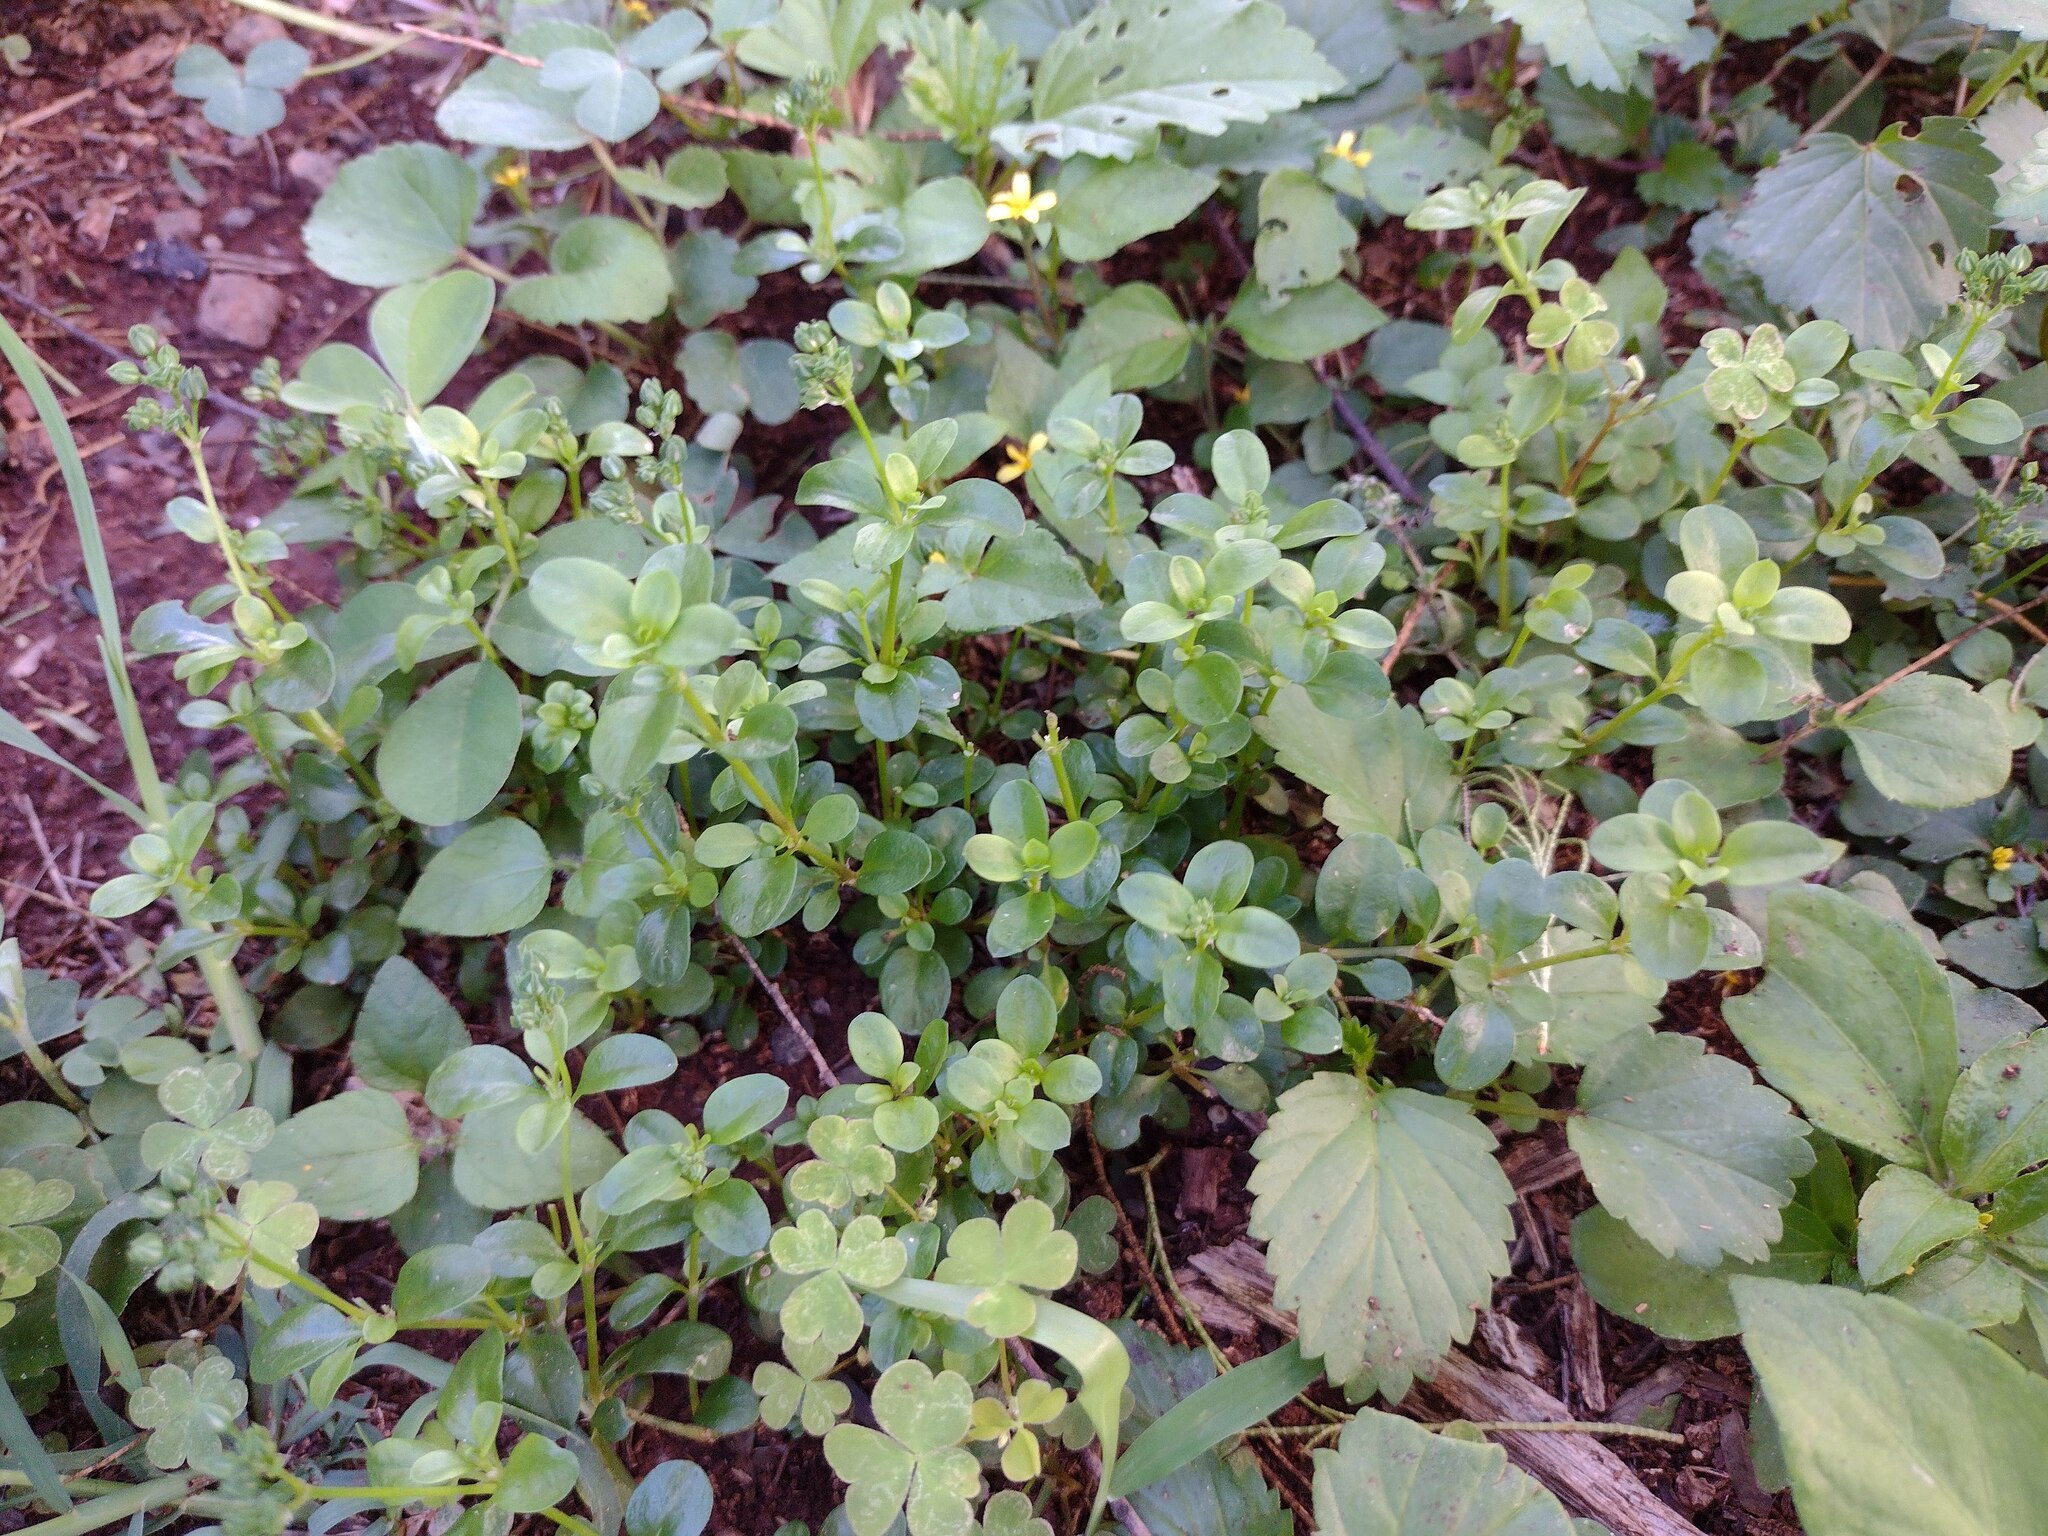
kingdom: Plantae
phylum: Tracheophyta
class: Magnoliopsida
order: Caryophyllales
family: Caryophyllaceae
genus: Polycarpon
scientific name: Polycarpon tetraphyllum
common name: Four-leaved all-seed
